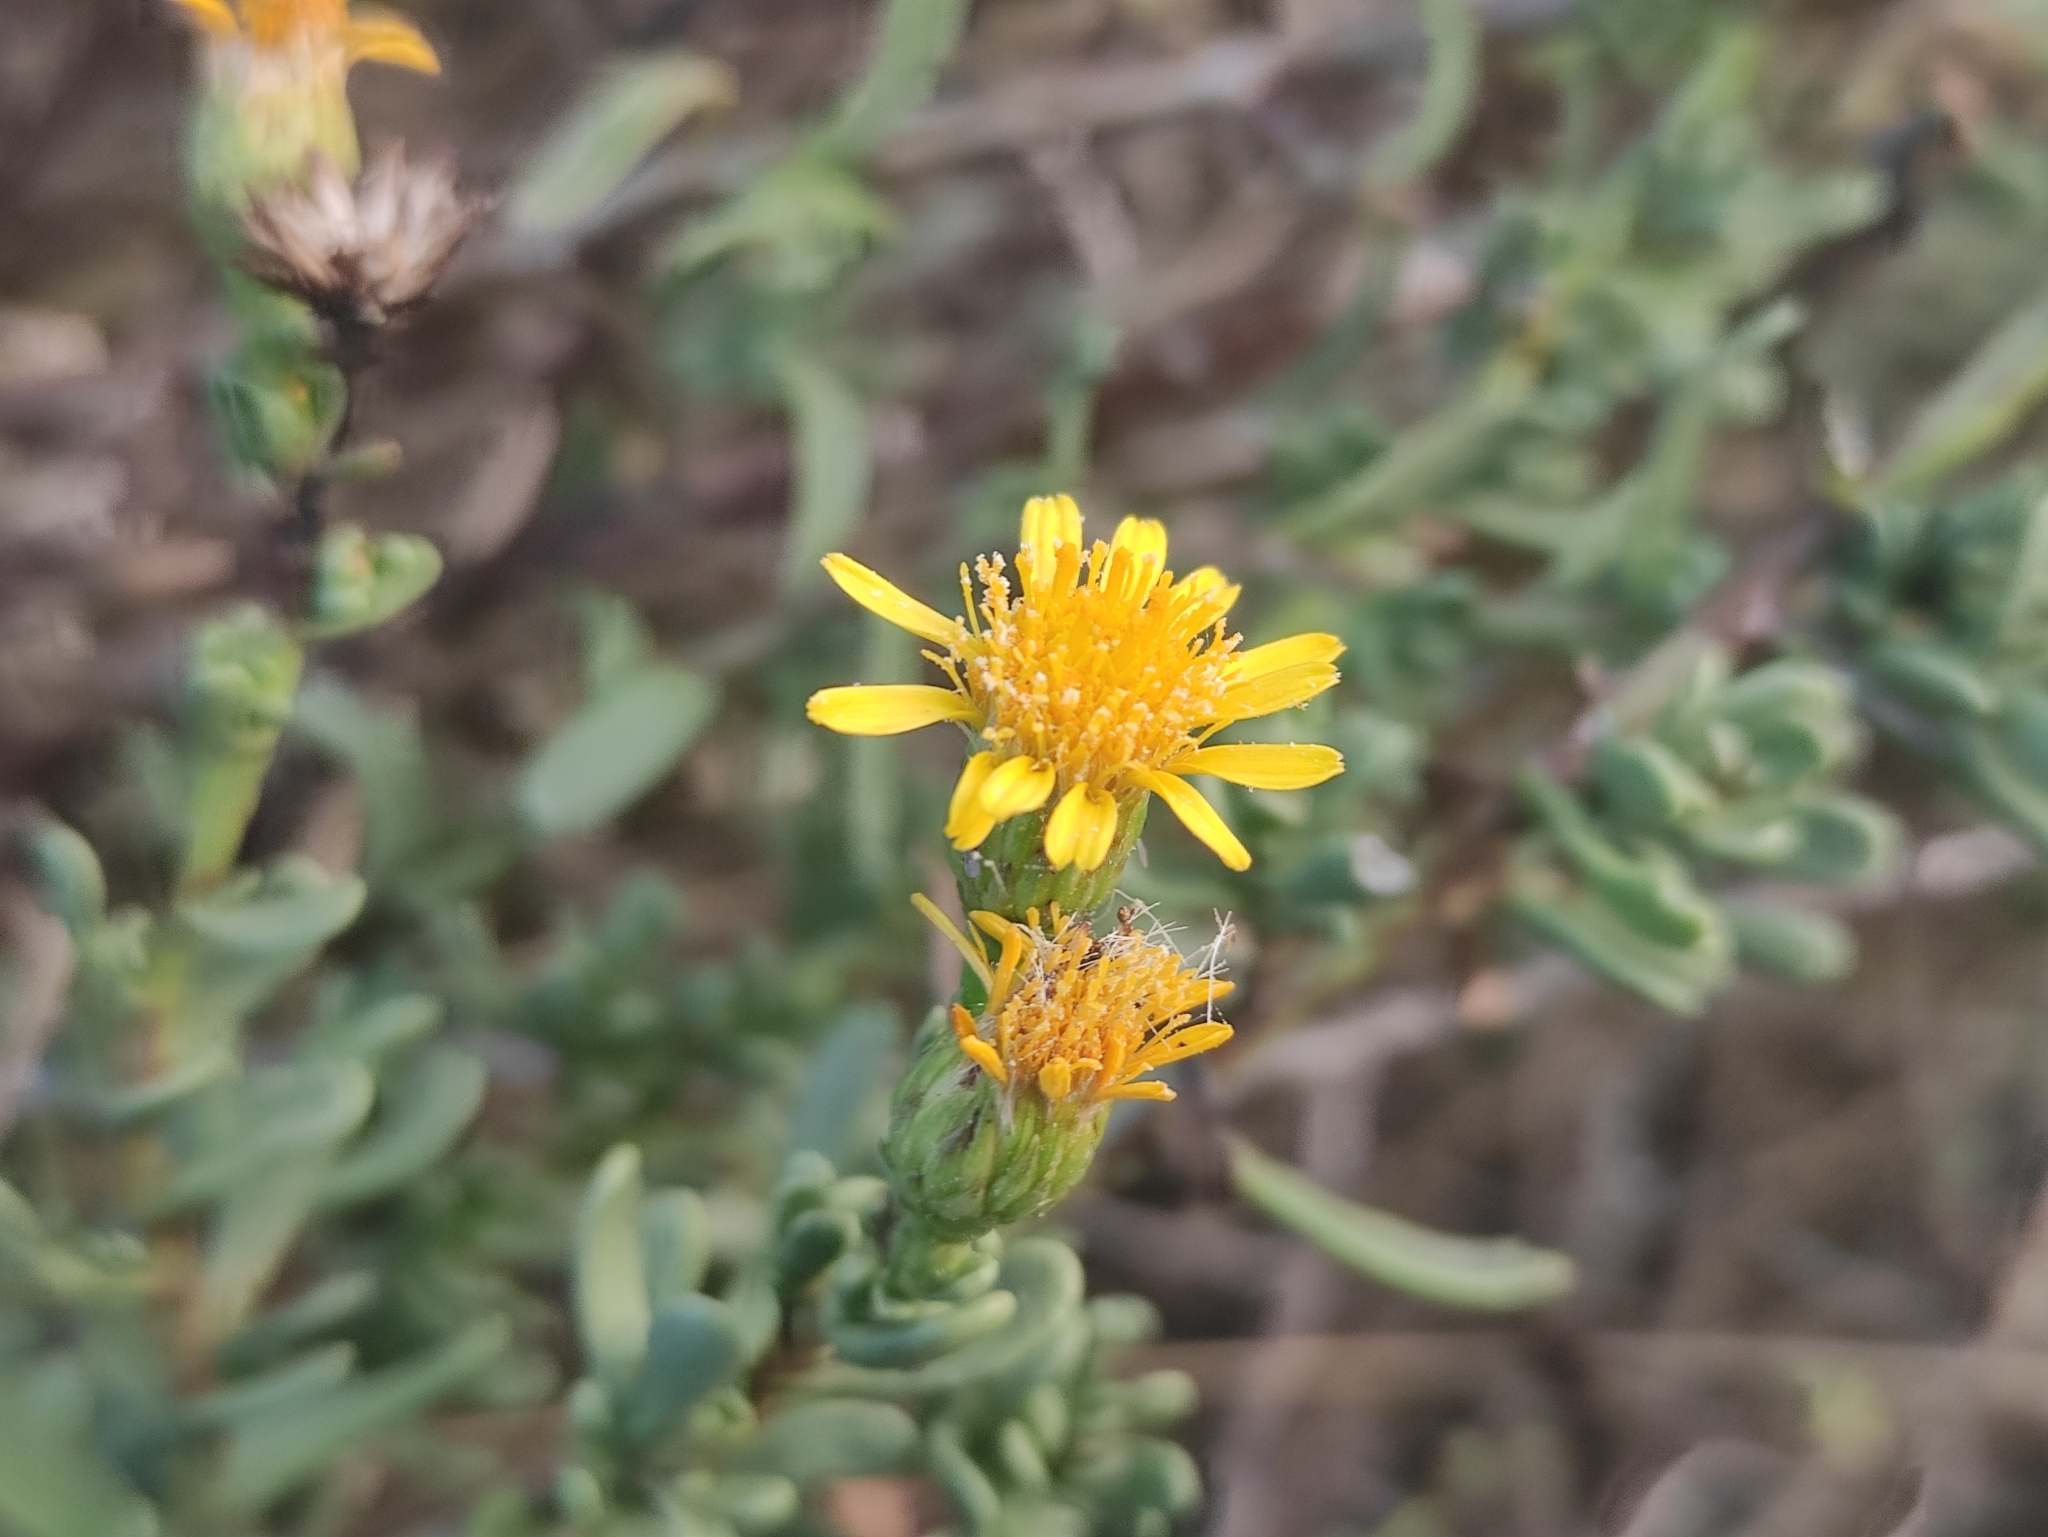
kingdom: Plantae
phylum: Tracheophyta
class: Magnoliopsida
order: Asterales
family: Asteraceae
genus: Limbarda
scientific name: Limbarda crithmoides
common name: Golden samphire
